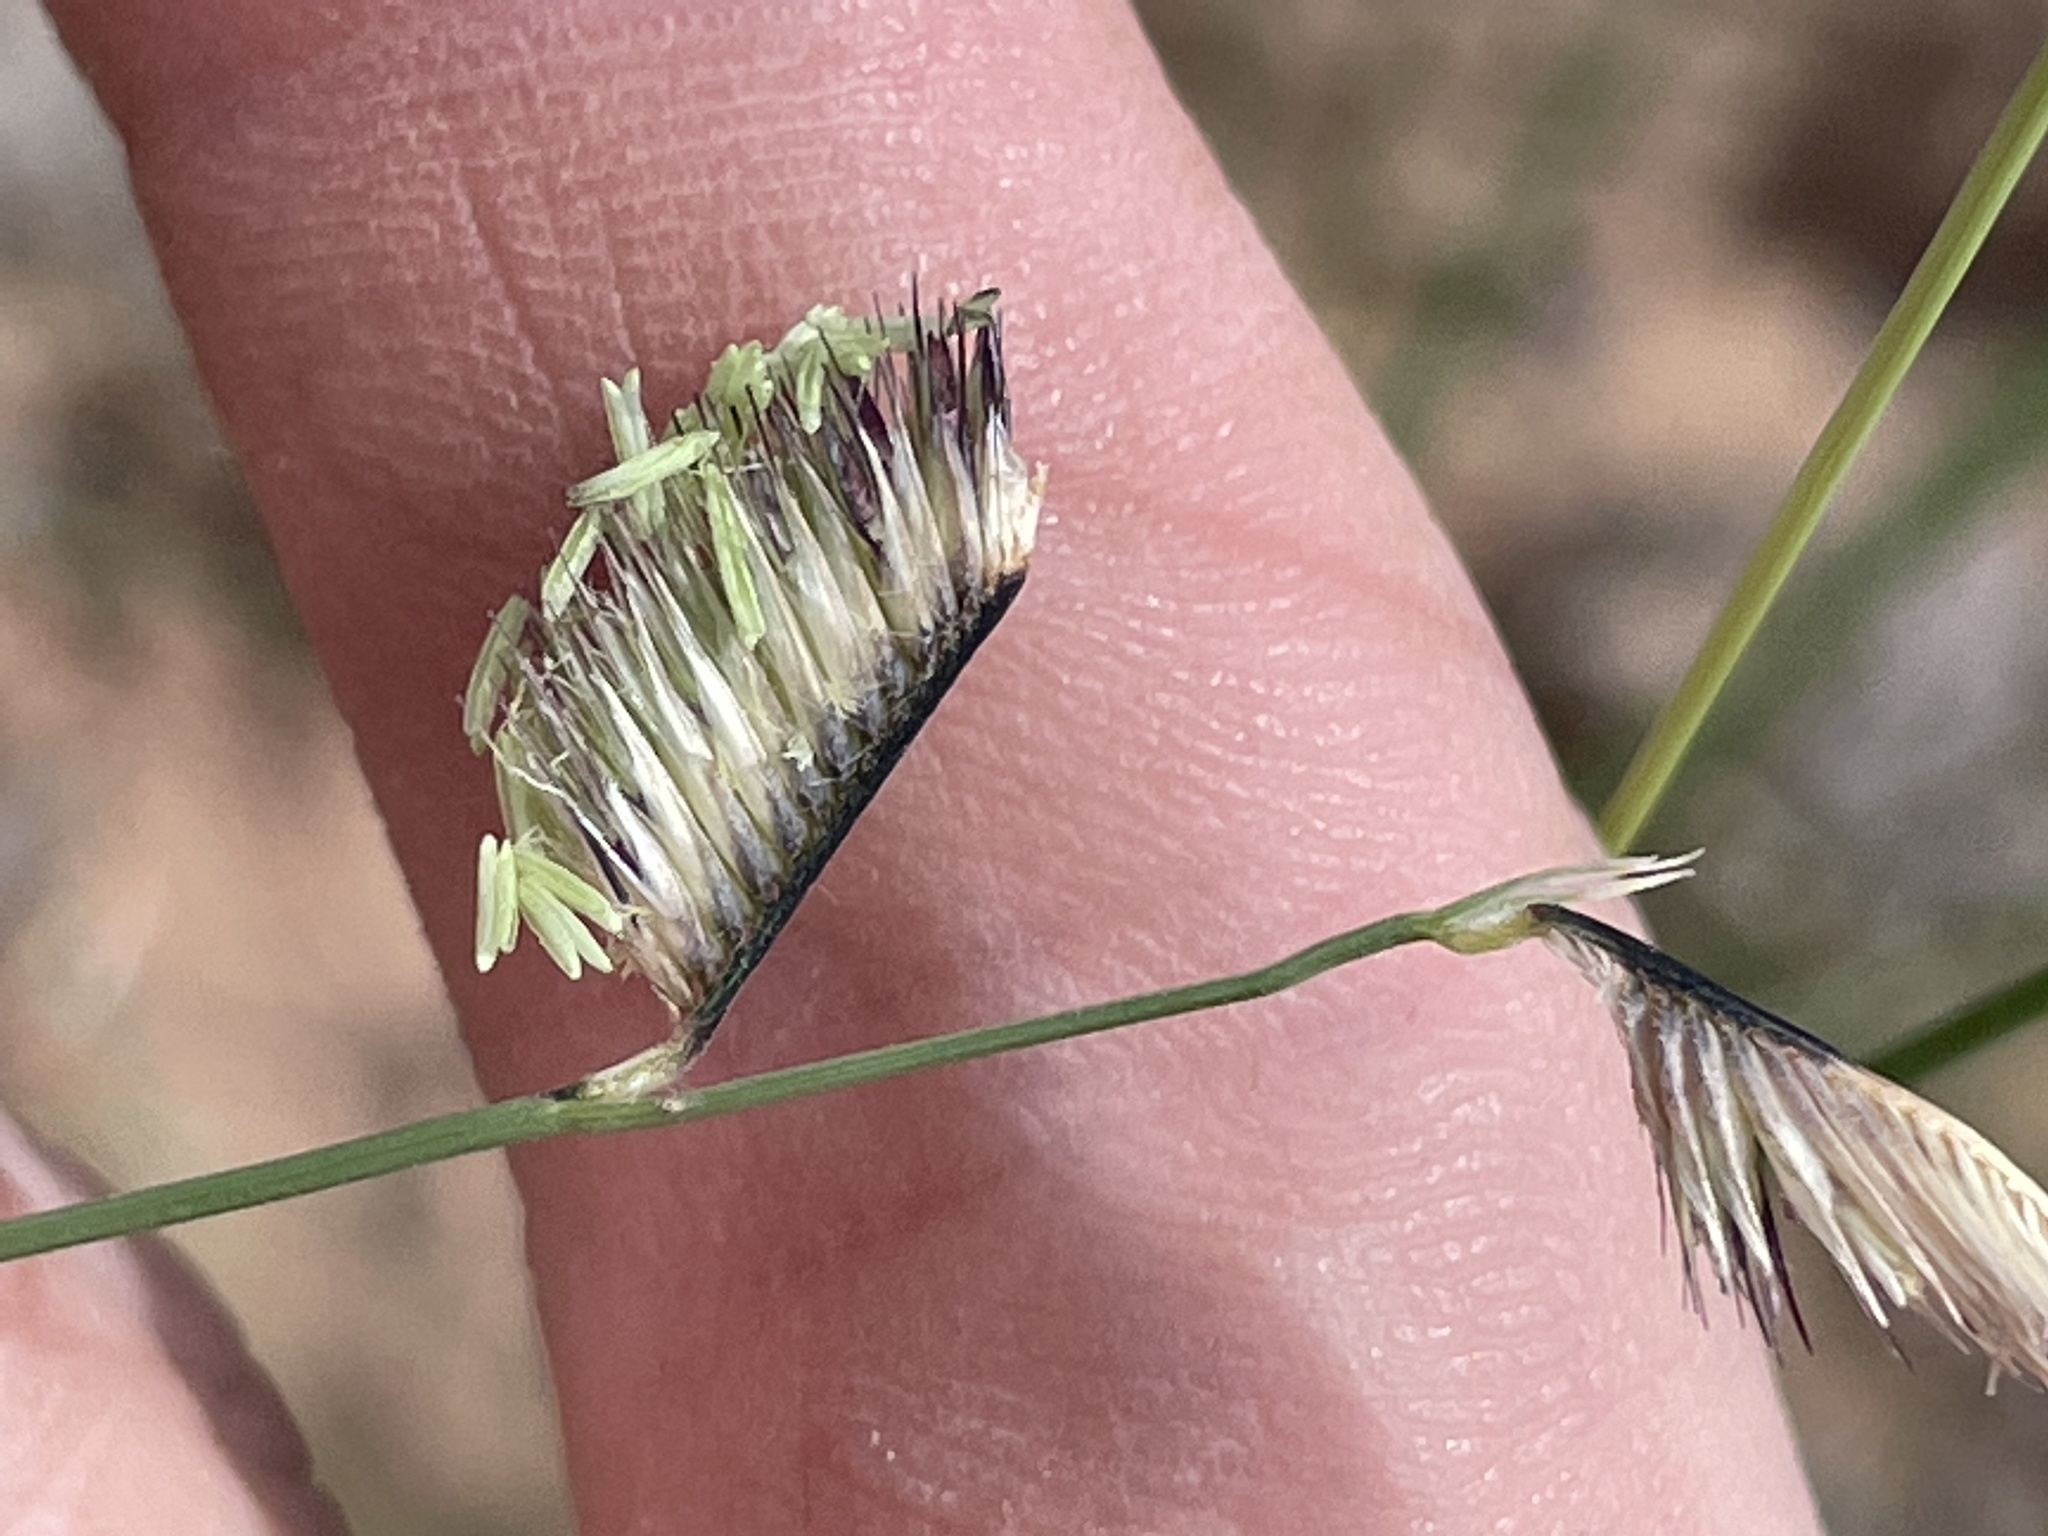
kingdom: Plantae
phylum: Tracheophyta
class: Liliopsida
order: Poales
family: Poaceae
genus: Bouteloua
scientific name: Bouteloua gracilis
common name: Blue grama
